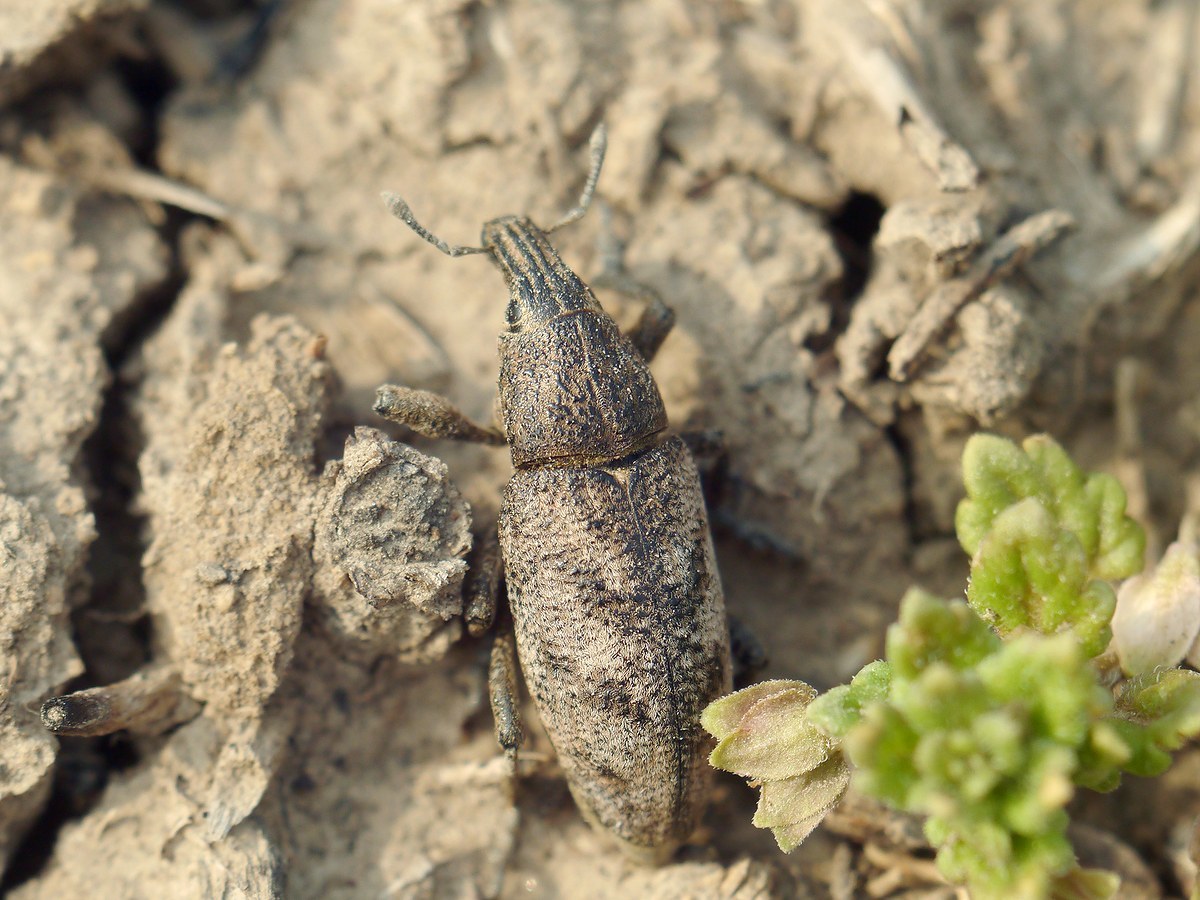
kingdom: Animalia
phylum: Arthropoda
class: Insecta
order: Coleoptera
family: Curculionidae
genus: Cleonis
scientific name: Cleonis pigra
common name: Large thistle weevil
